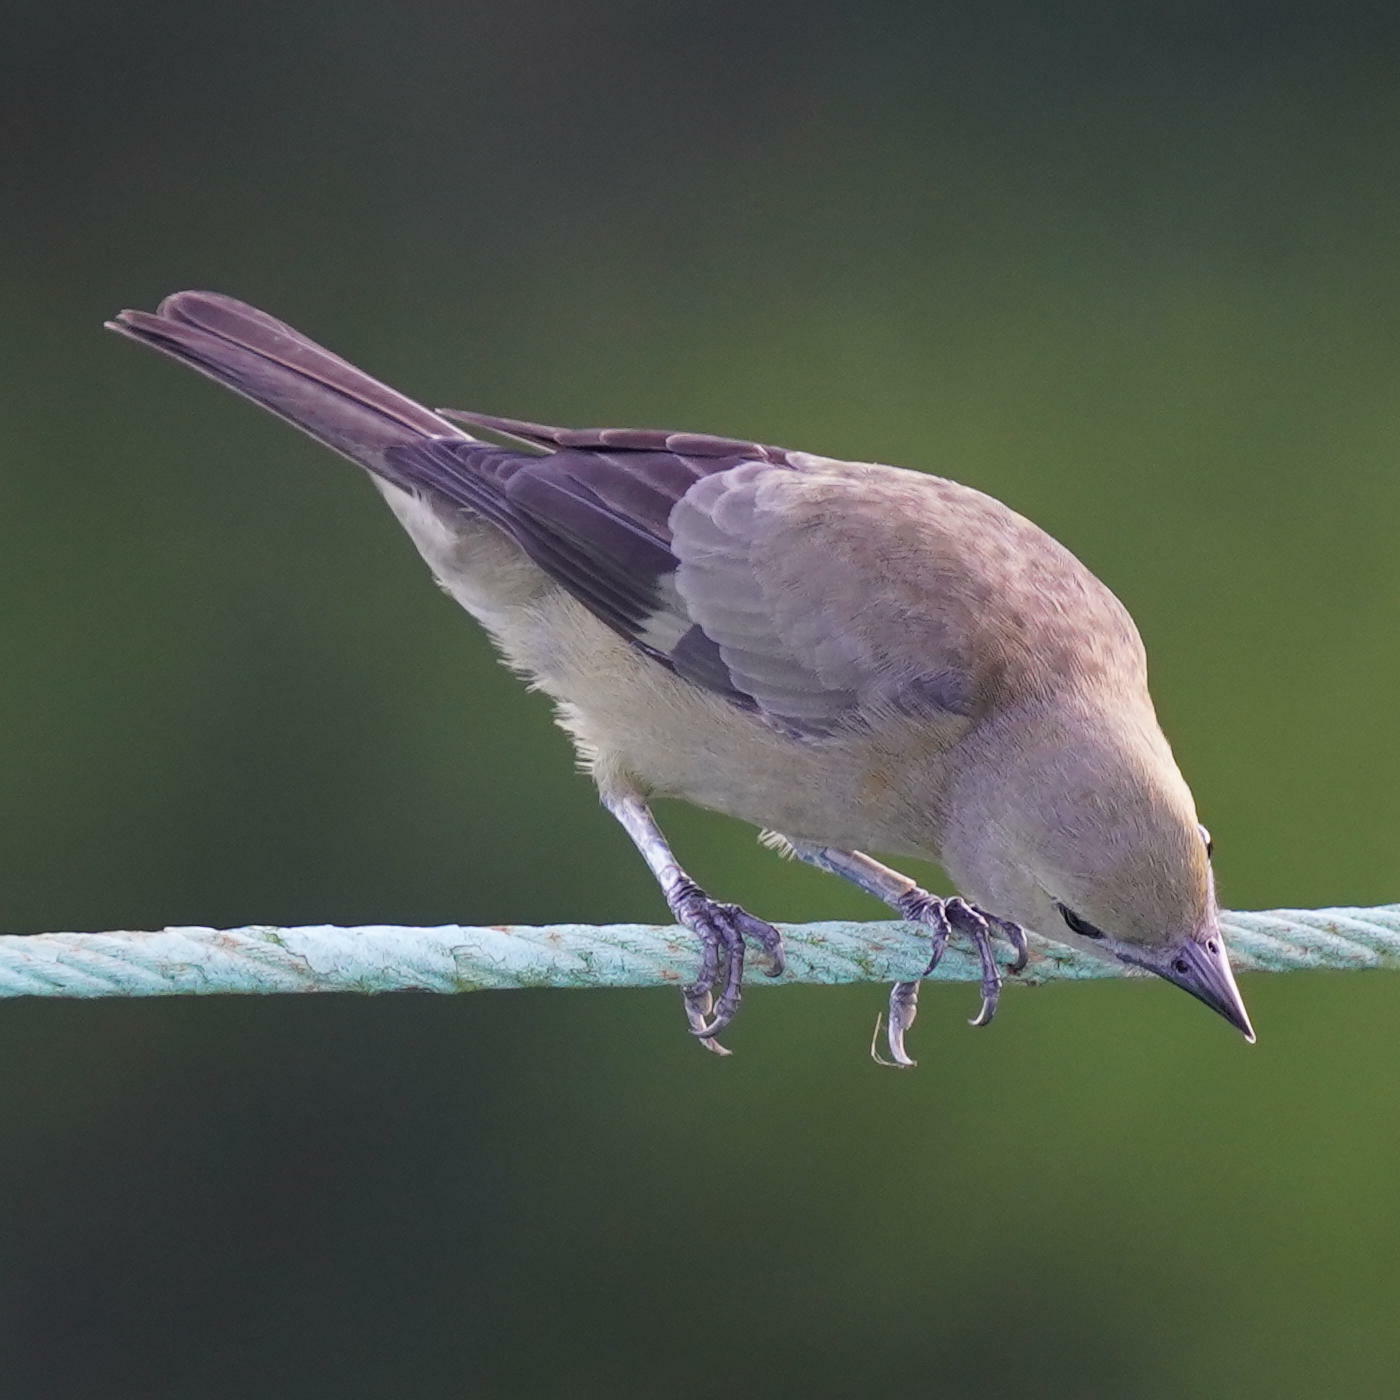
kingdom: Animalia
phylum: Chordata
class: Aves
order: Passeriformes
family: Thraupidae
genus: Thraupis
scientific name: Thraupis palmarum
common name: Palm tanager
